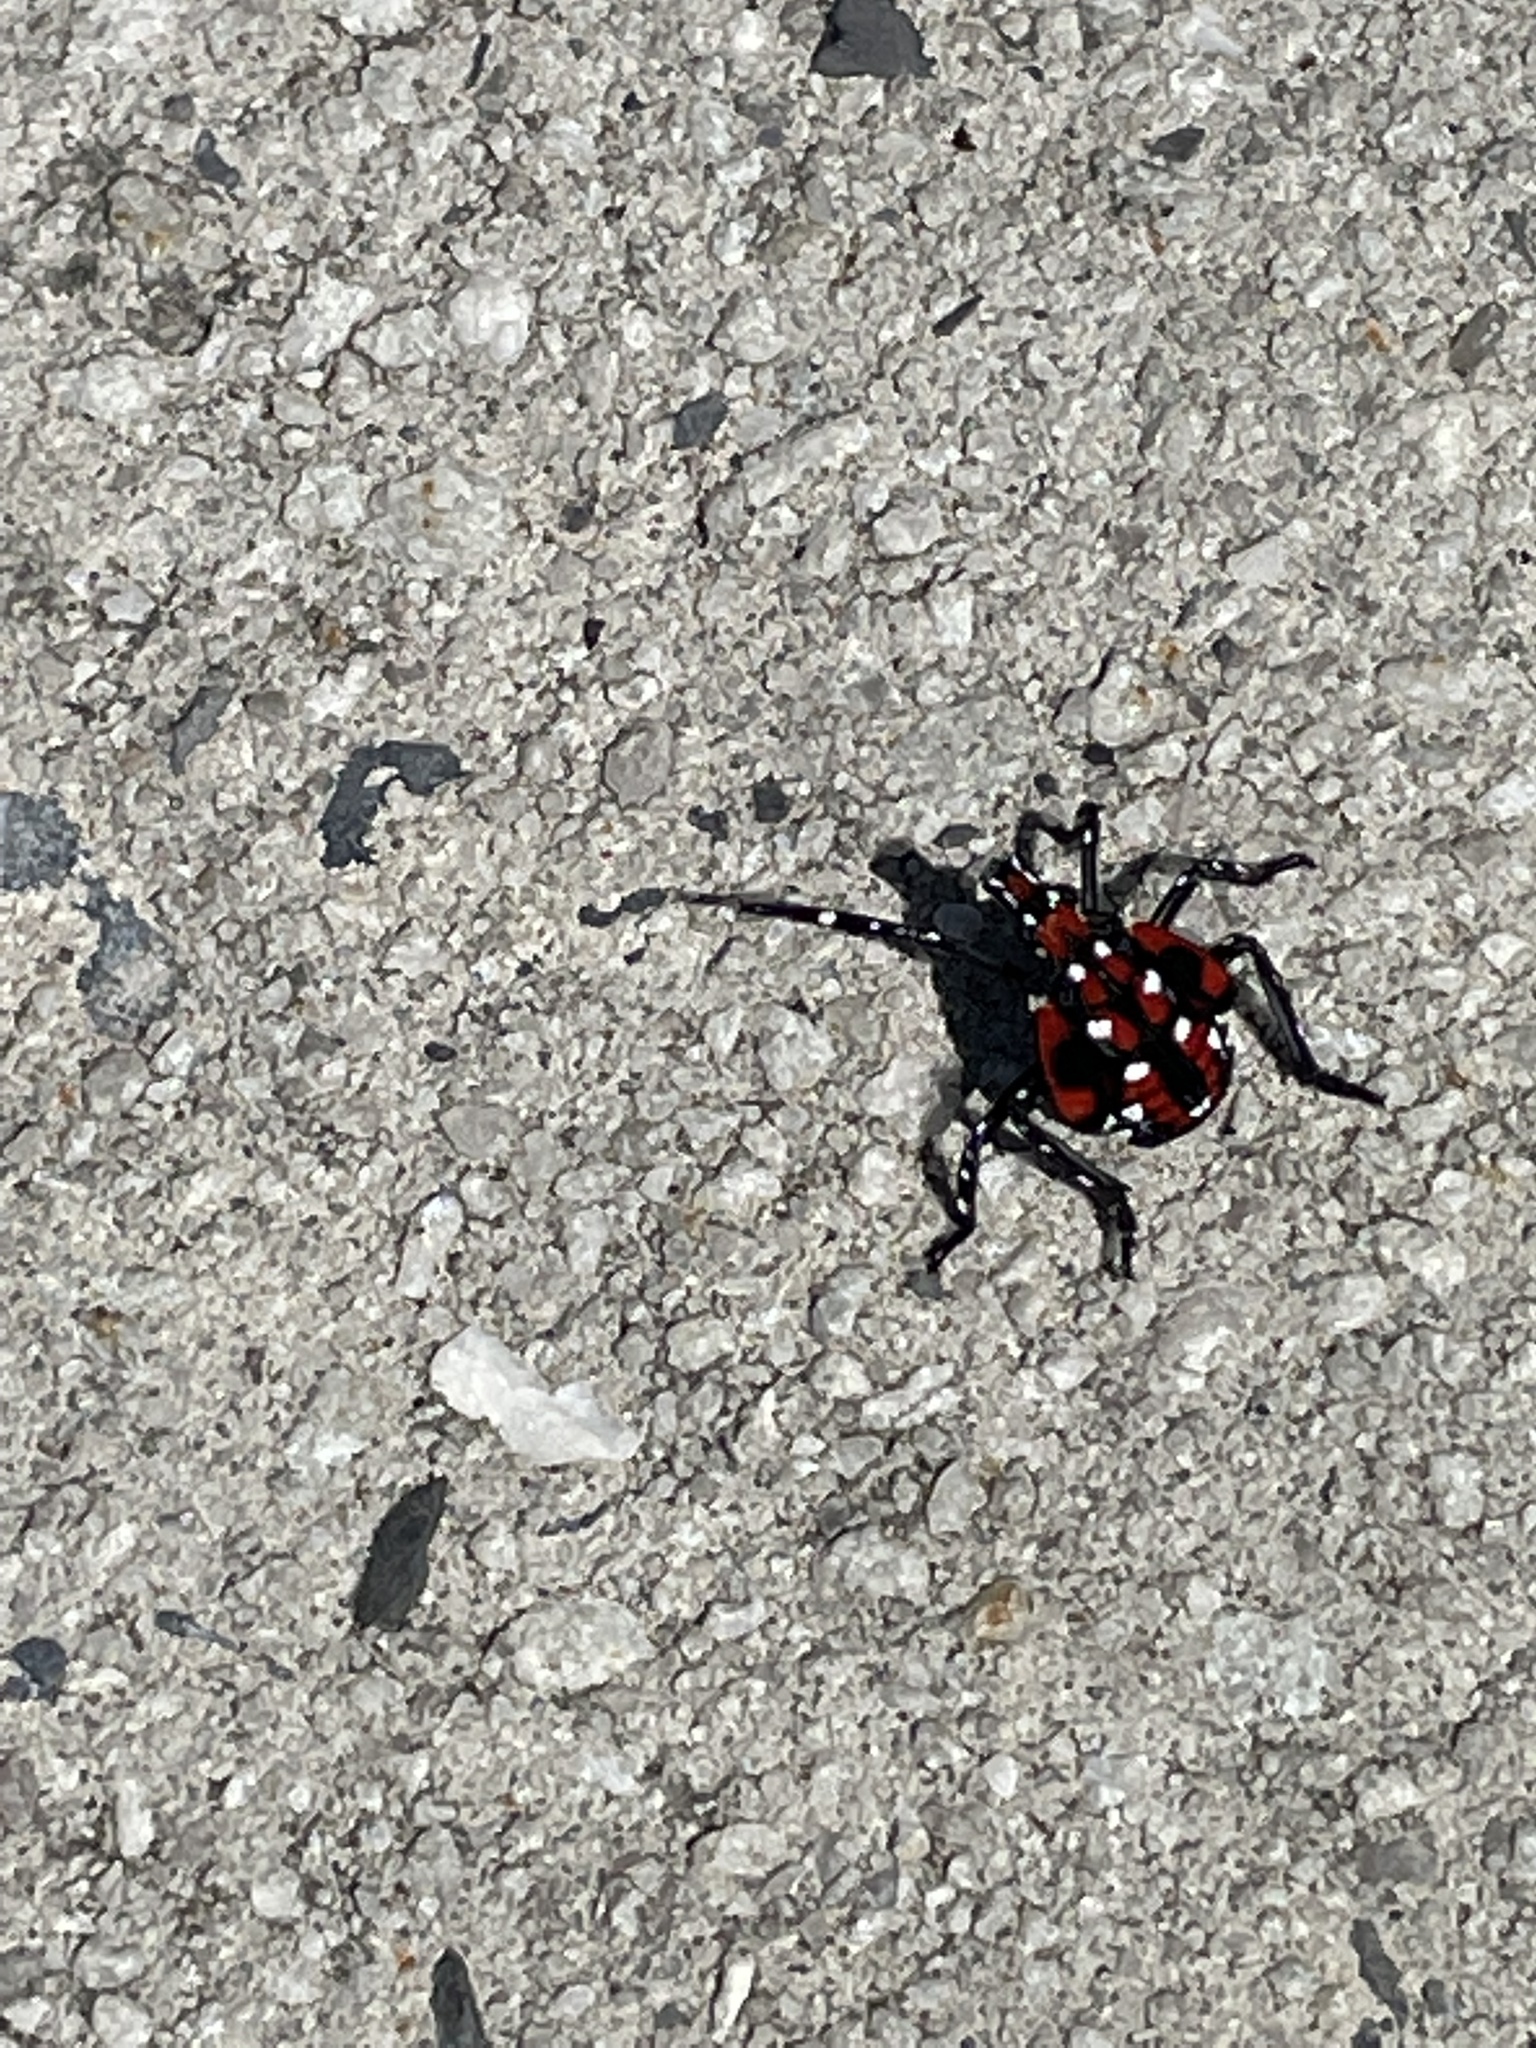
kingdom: Animalia
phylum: Arthropoda
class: Insecta
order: Hemiptera
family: Fulgoridae
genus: Lycorma
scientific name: Lycorma delicatula
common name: Spotted lanternfly
